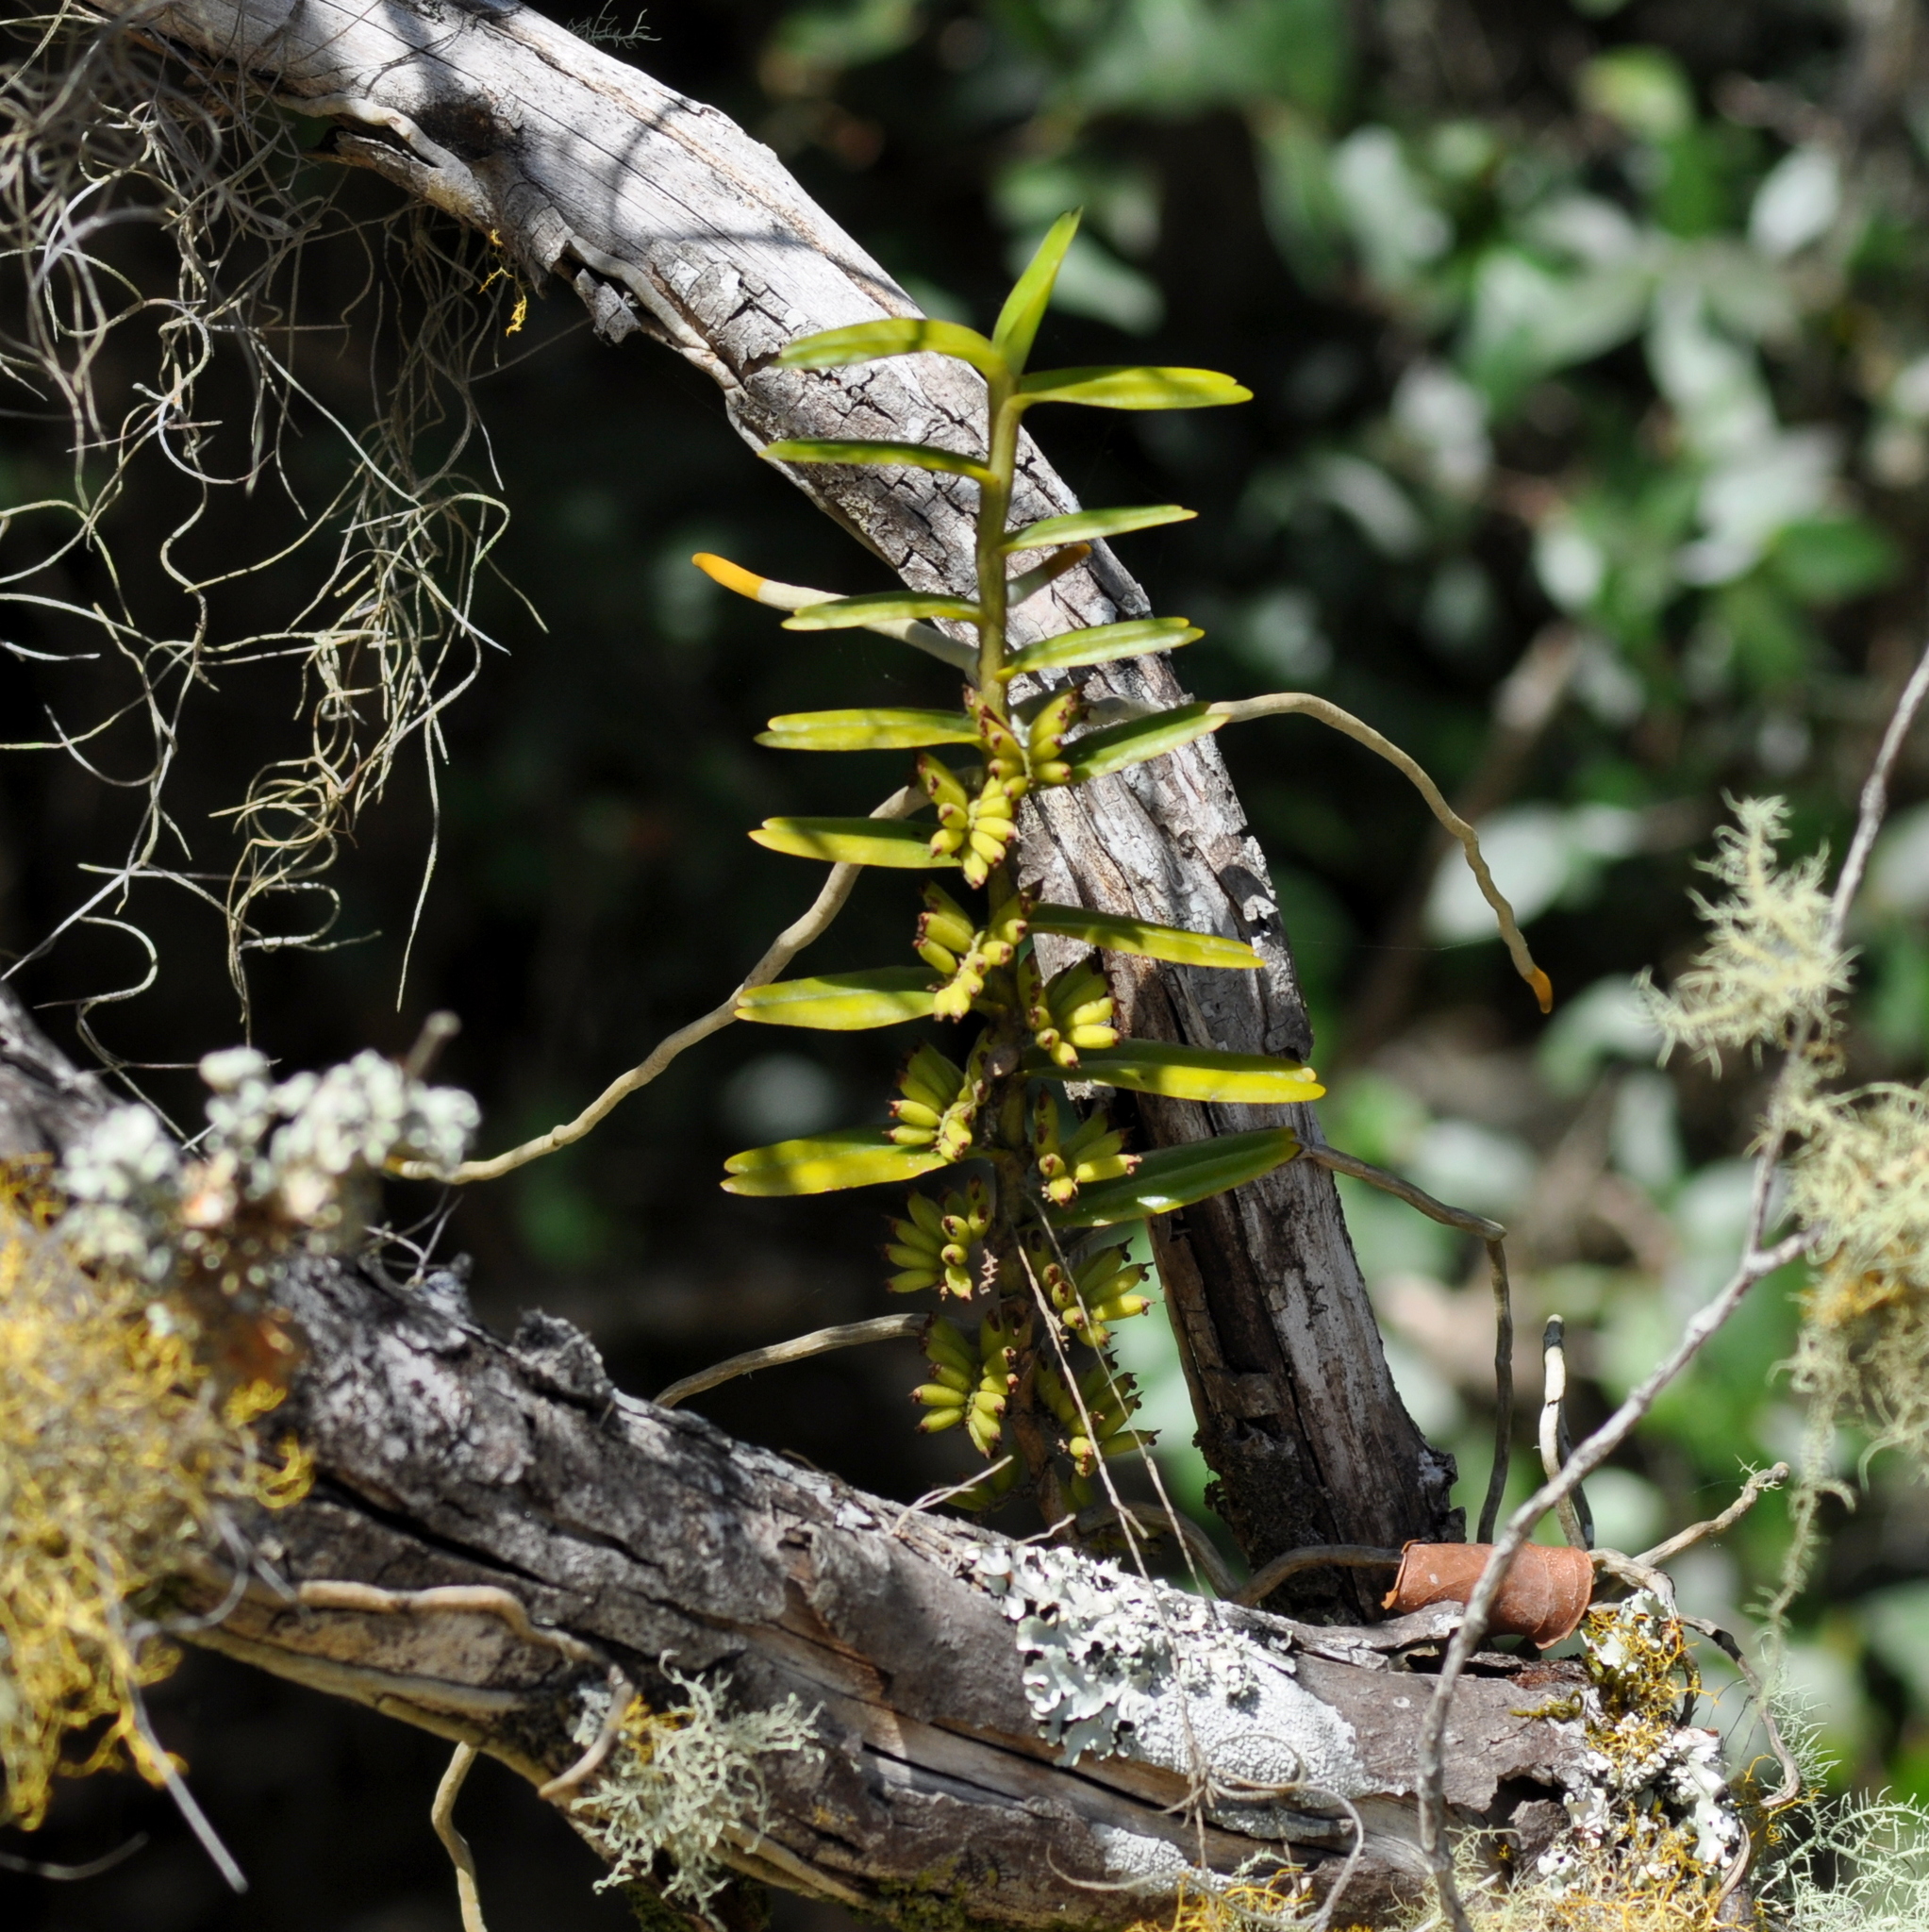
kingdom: Plantae
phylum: Tracheophyta
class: Liliopsida
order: Asparagales
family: Orchidaceae
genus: Campylocentrum
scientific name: Campylocentrum aromaticum
